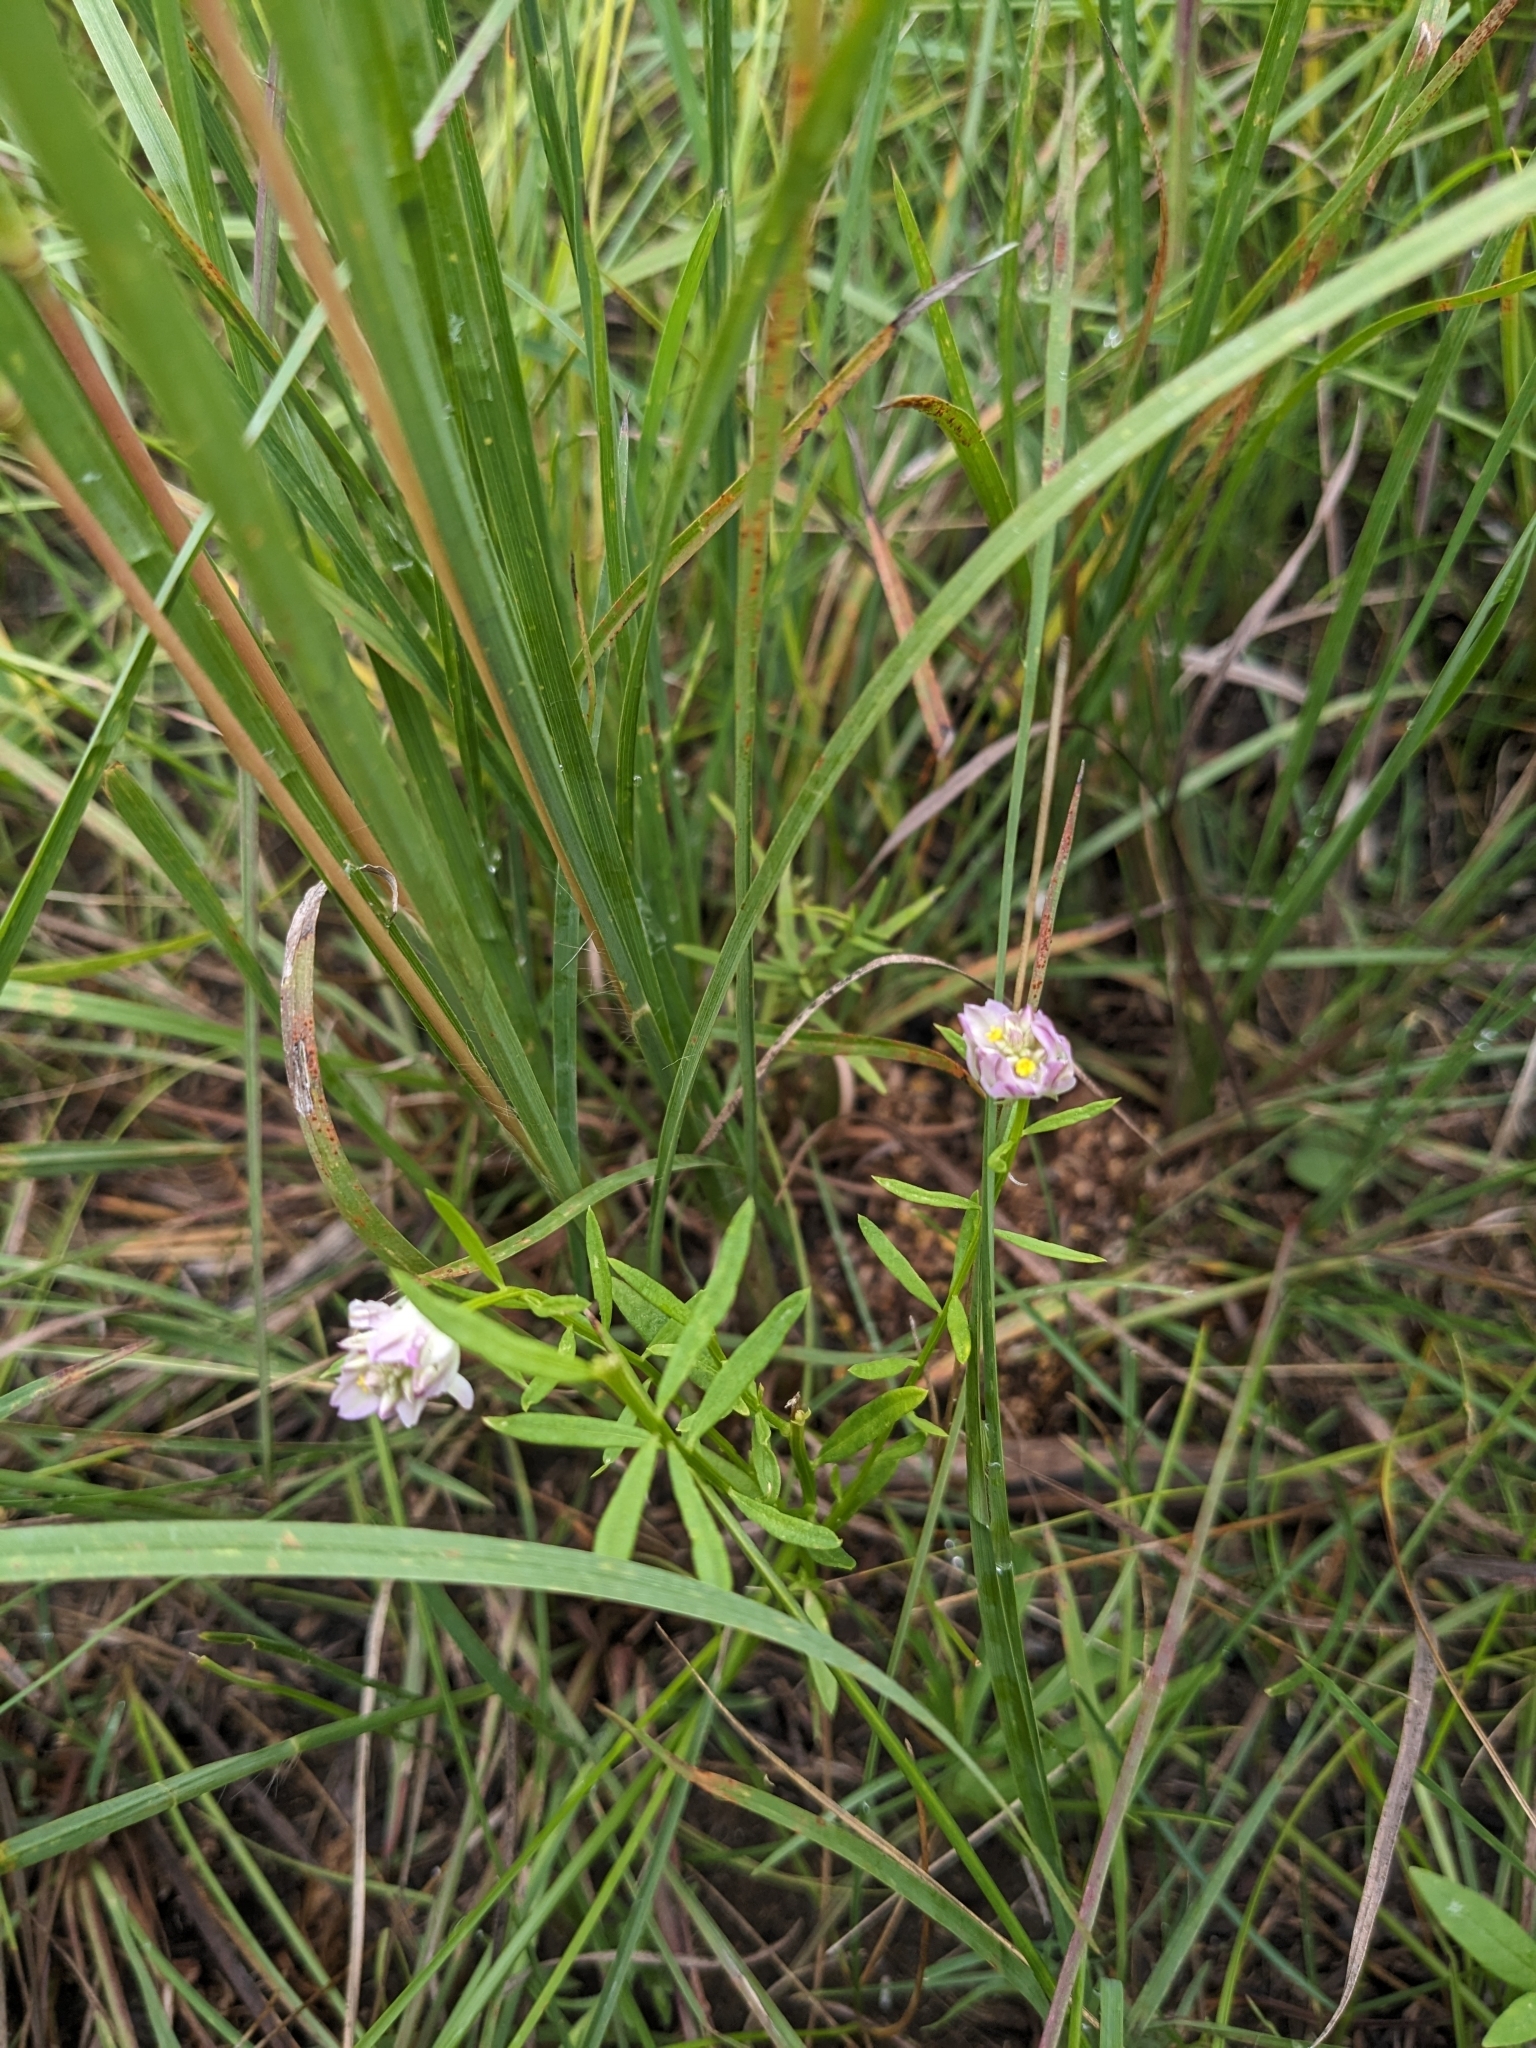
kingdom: Plantae
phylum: Tracheophyta
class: Magnoliopsida
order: Fabales
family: Polygalaceae
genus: Polygala
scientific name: Polygala sanguinea
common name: Blood milkwort
